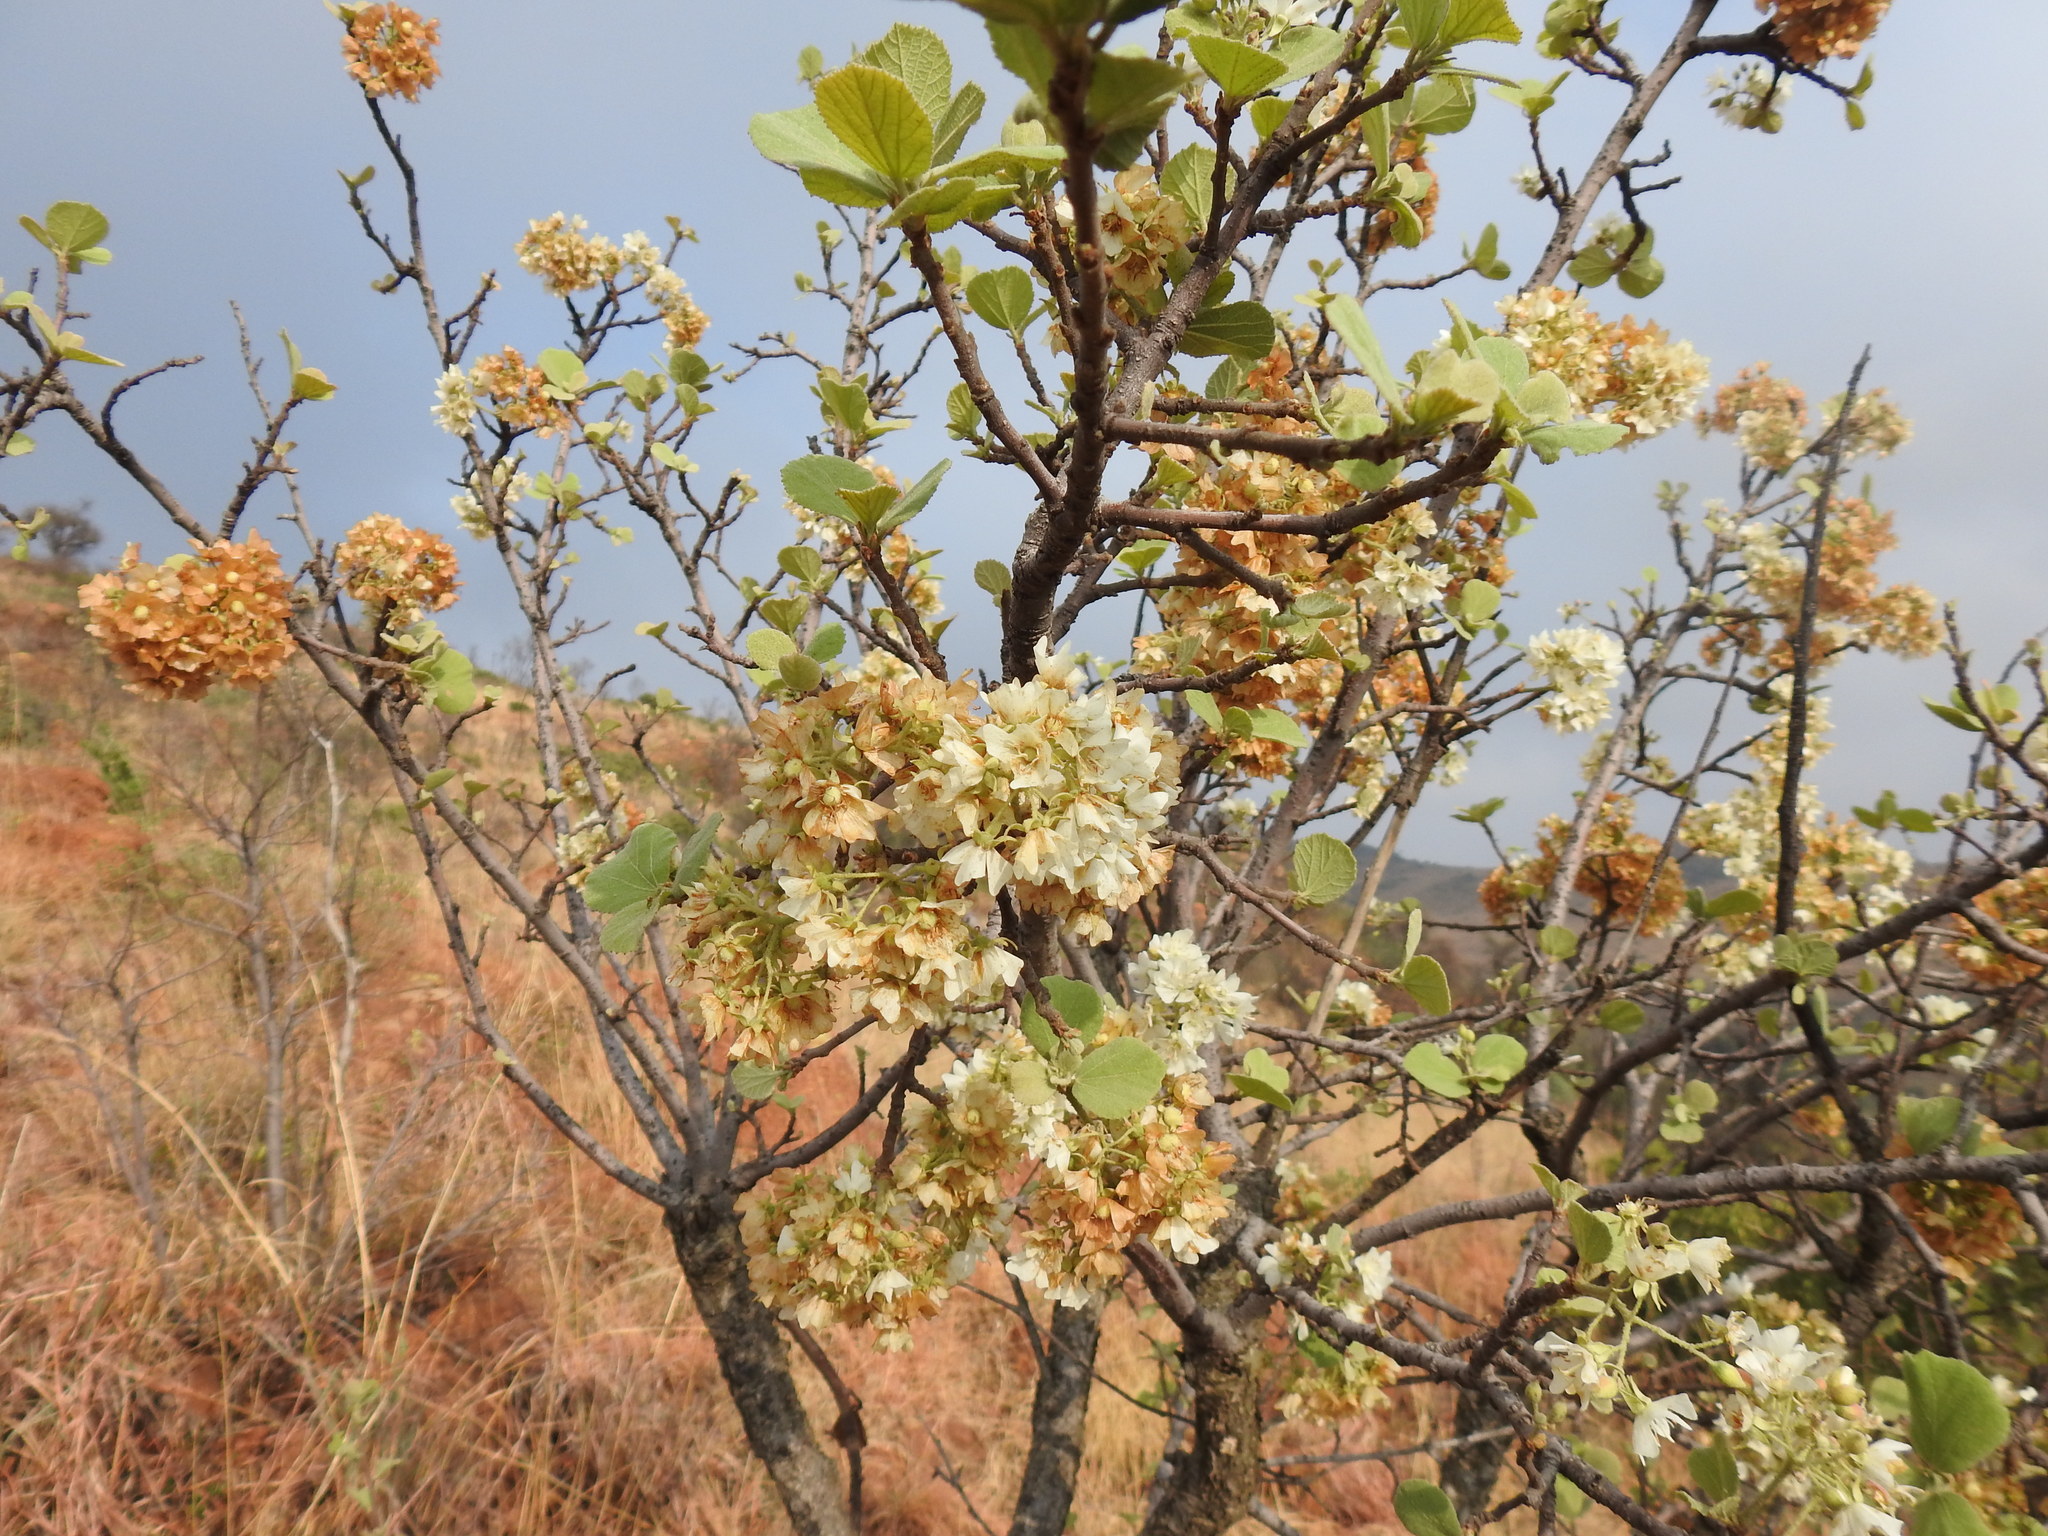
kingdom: Plantae
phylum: Tracheophyta
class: Magnoliopsida
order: Malvales
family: Malvaceae
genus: Dombeya
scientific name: Dombeya rotundifolia
